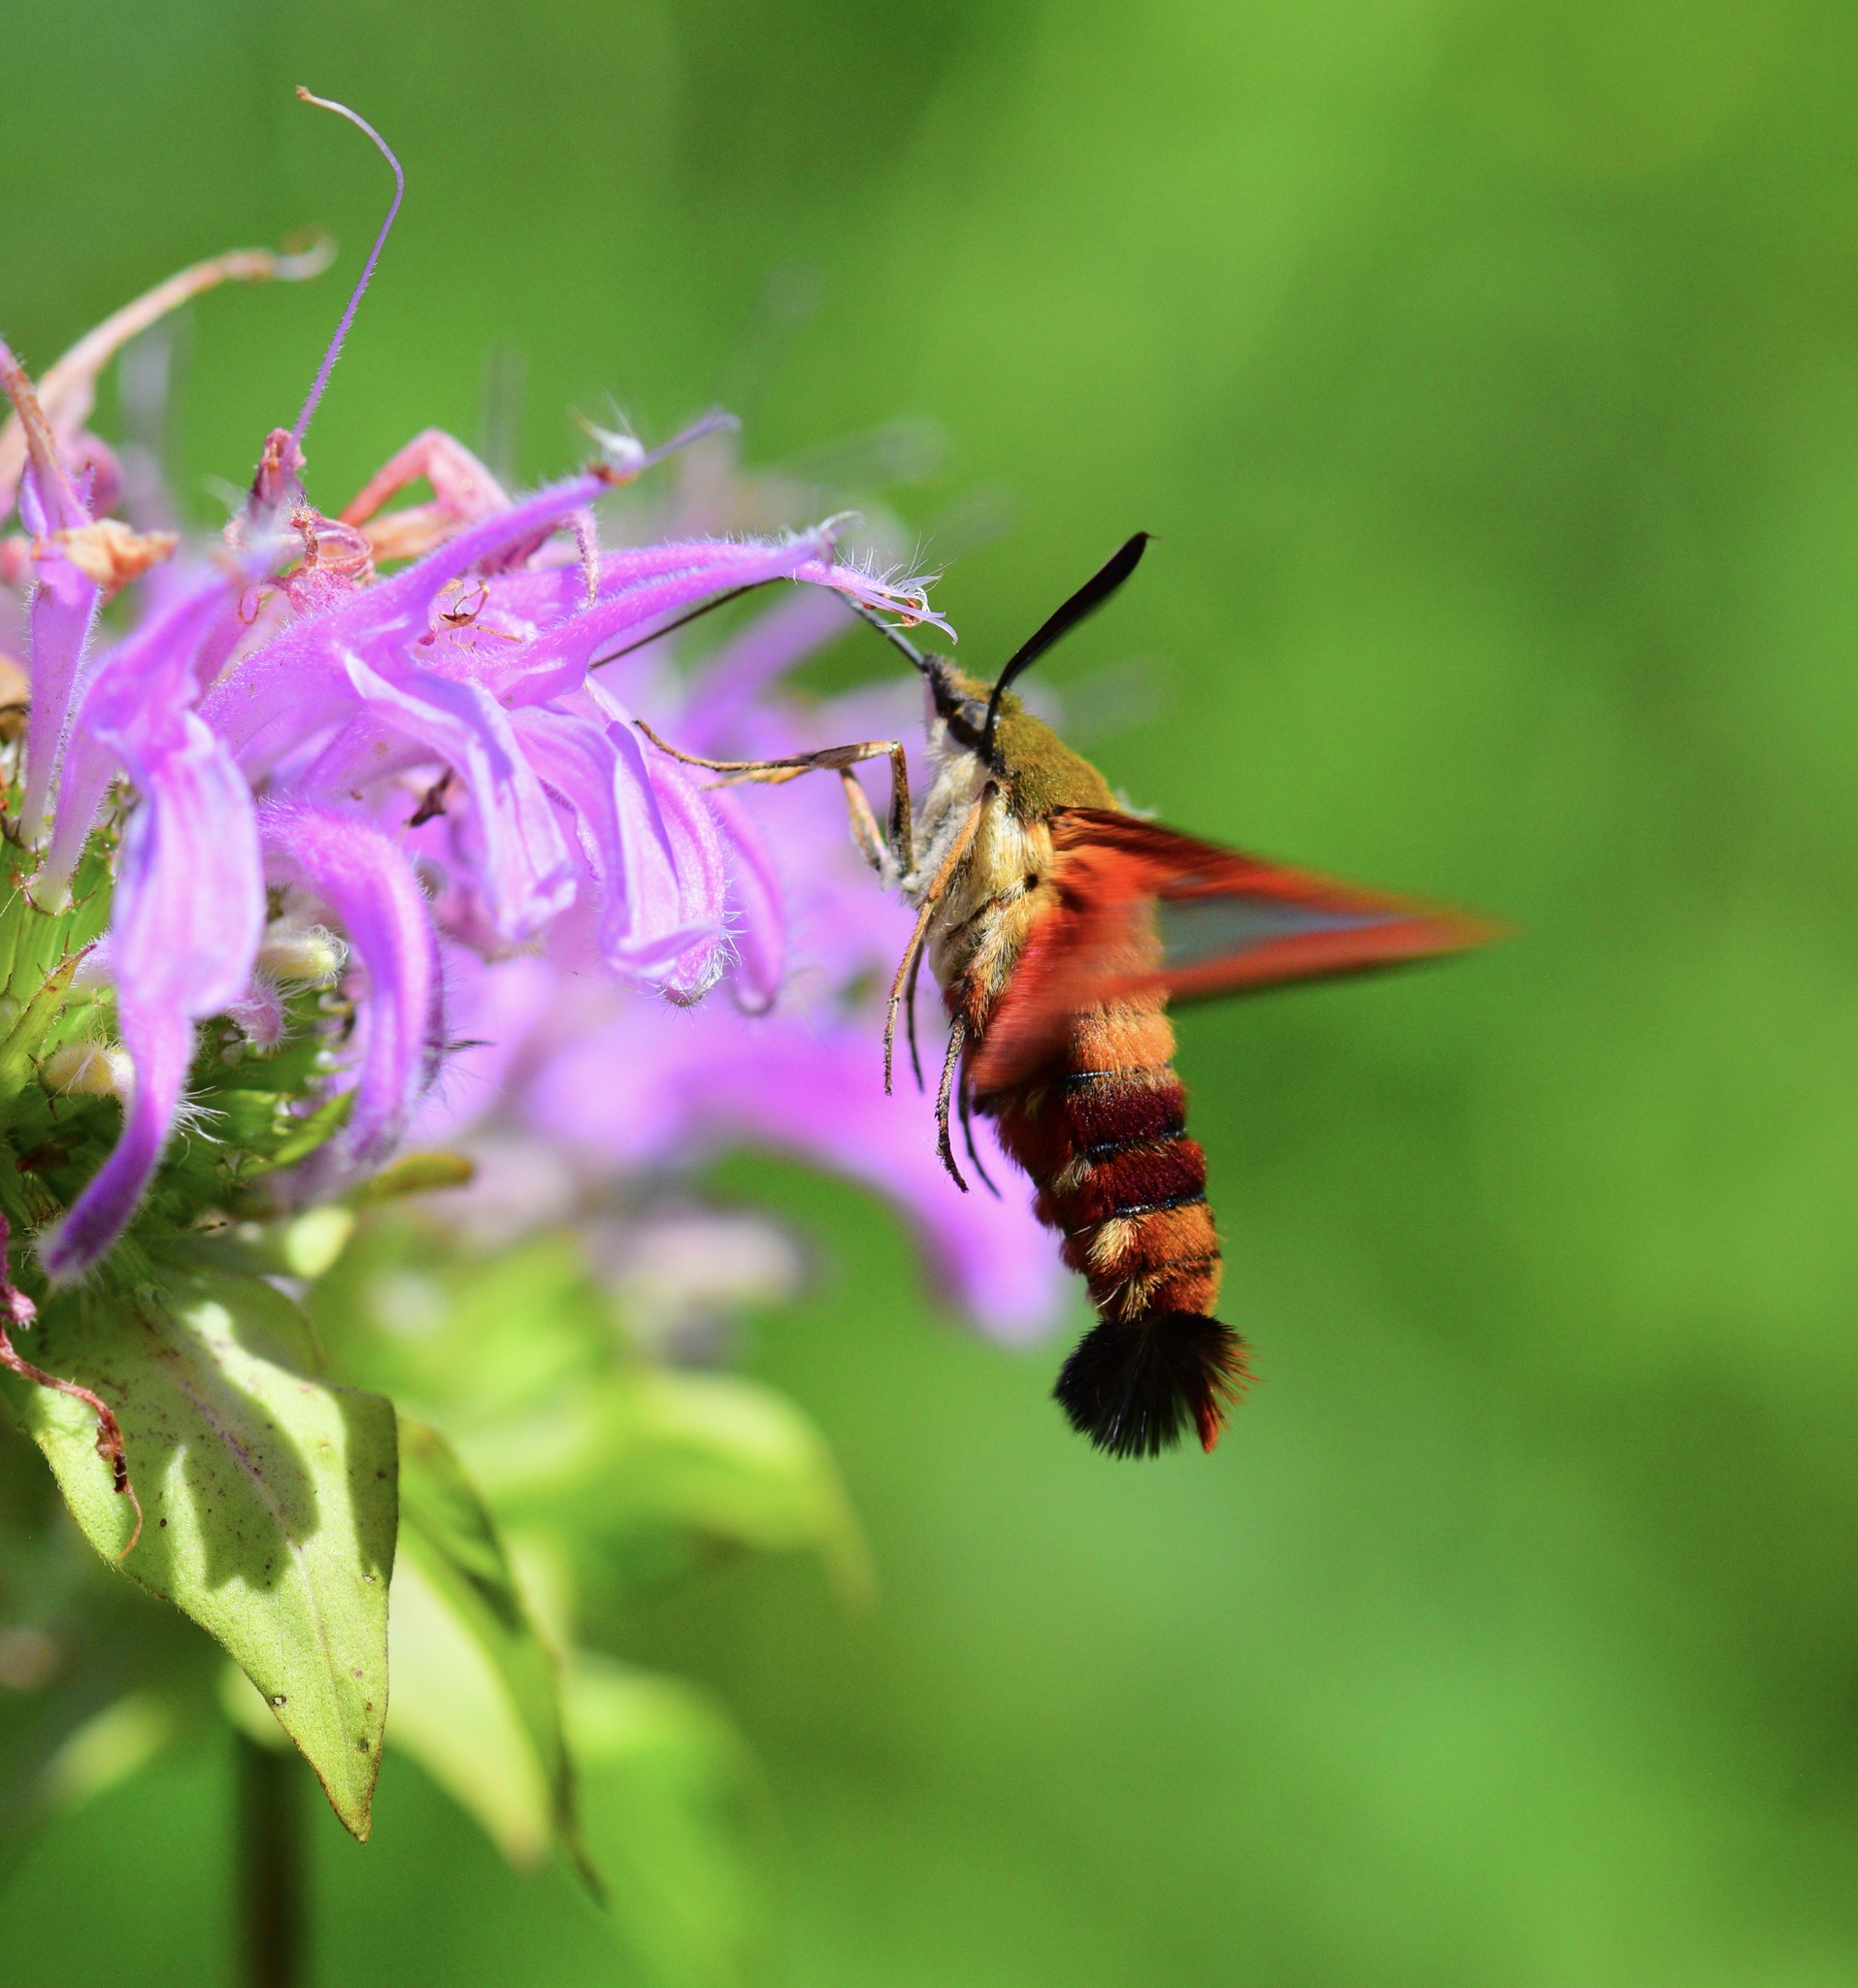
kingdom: Animalia
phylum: Arthropoda
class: Insecta
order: Lepidoptera
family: Sphingidae
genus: Hemaris
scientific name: Hemaris thysbe
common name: Common clear-wing
